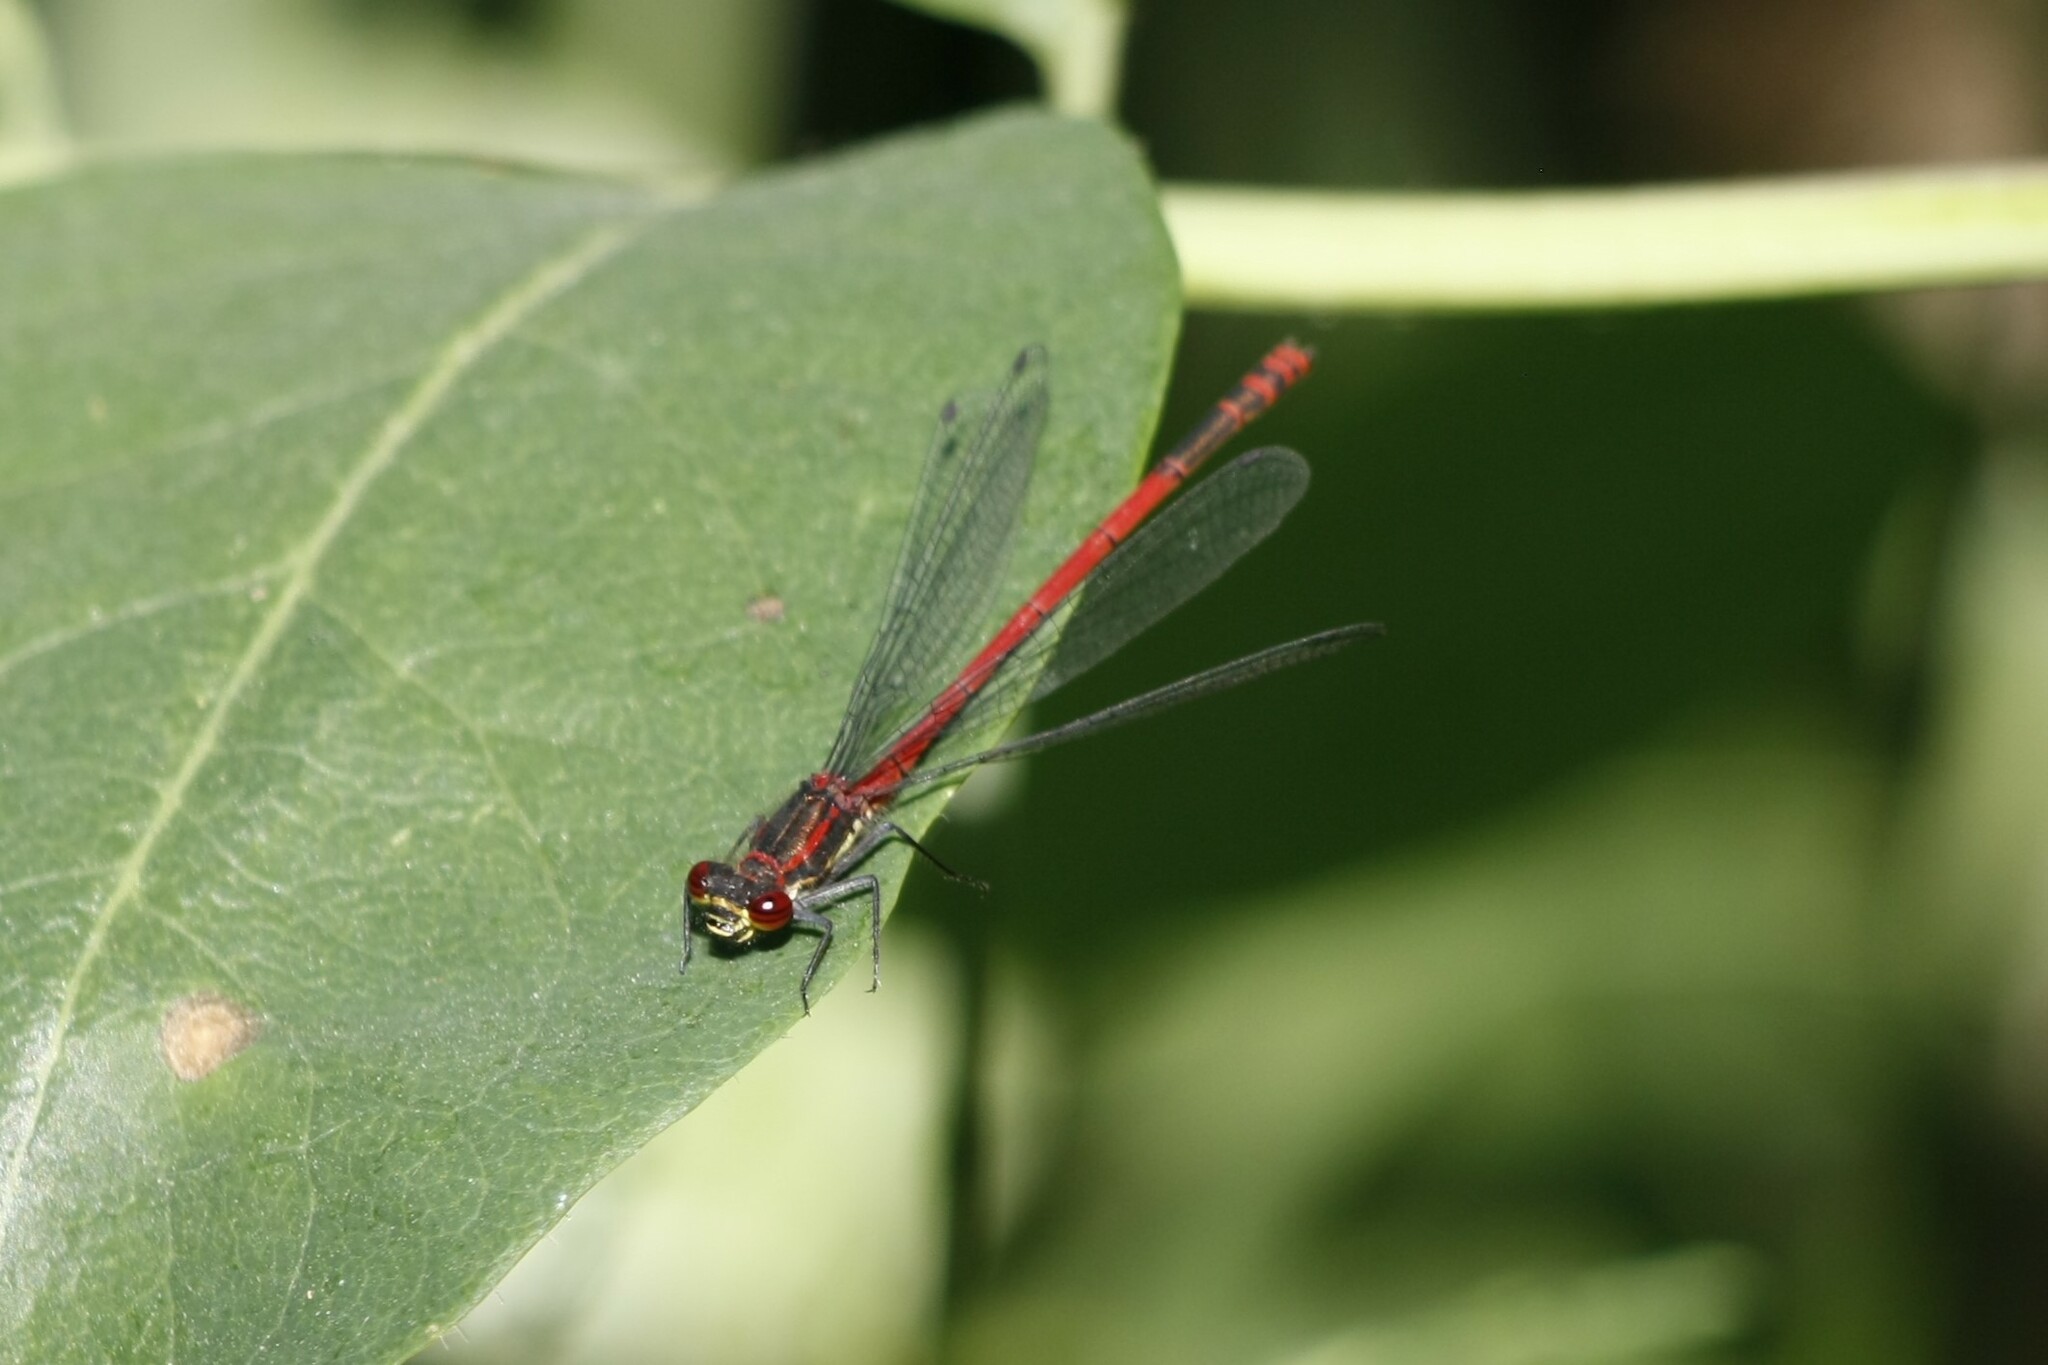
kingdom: Animalia
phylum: Arthropoda
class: Insecta
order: Odonata
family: Coenagrionidae
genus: Pyrrhosoma
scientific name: Pyrrhosoma nymphula
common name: Large red damsel
